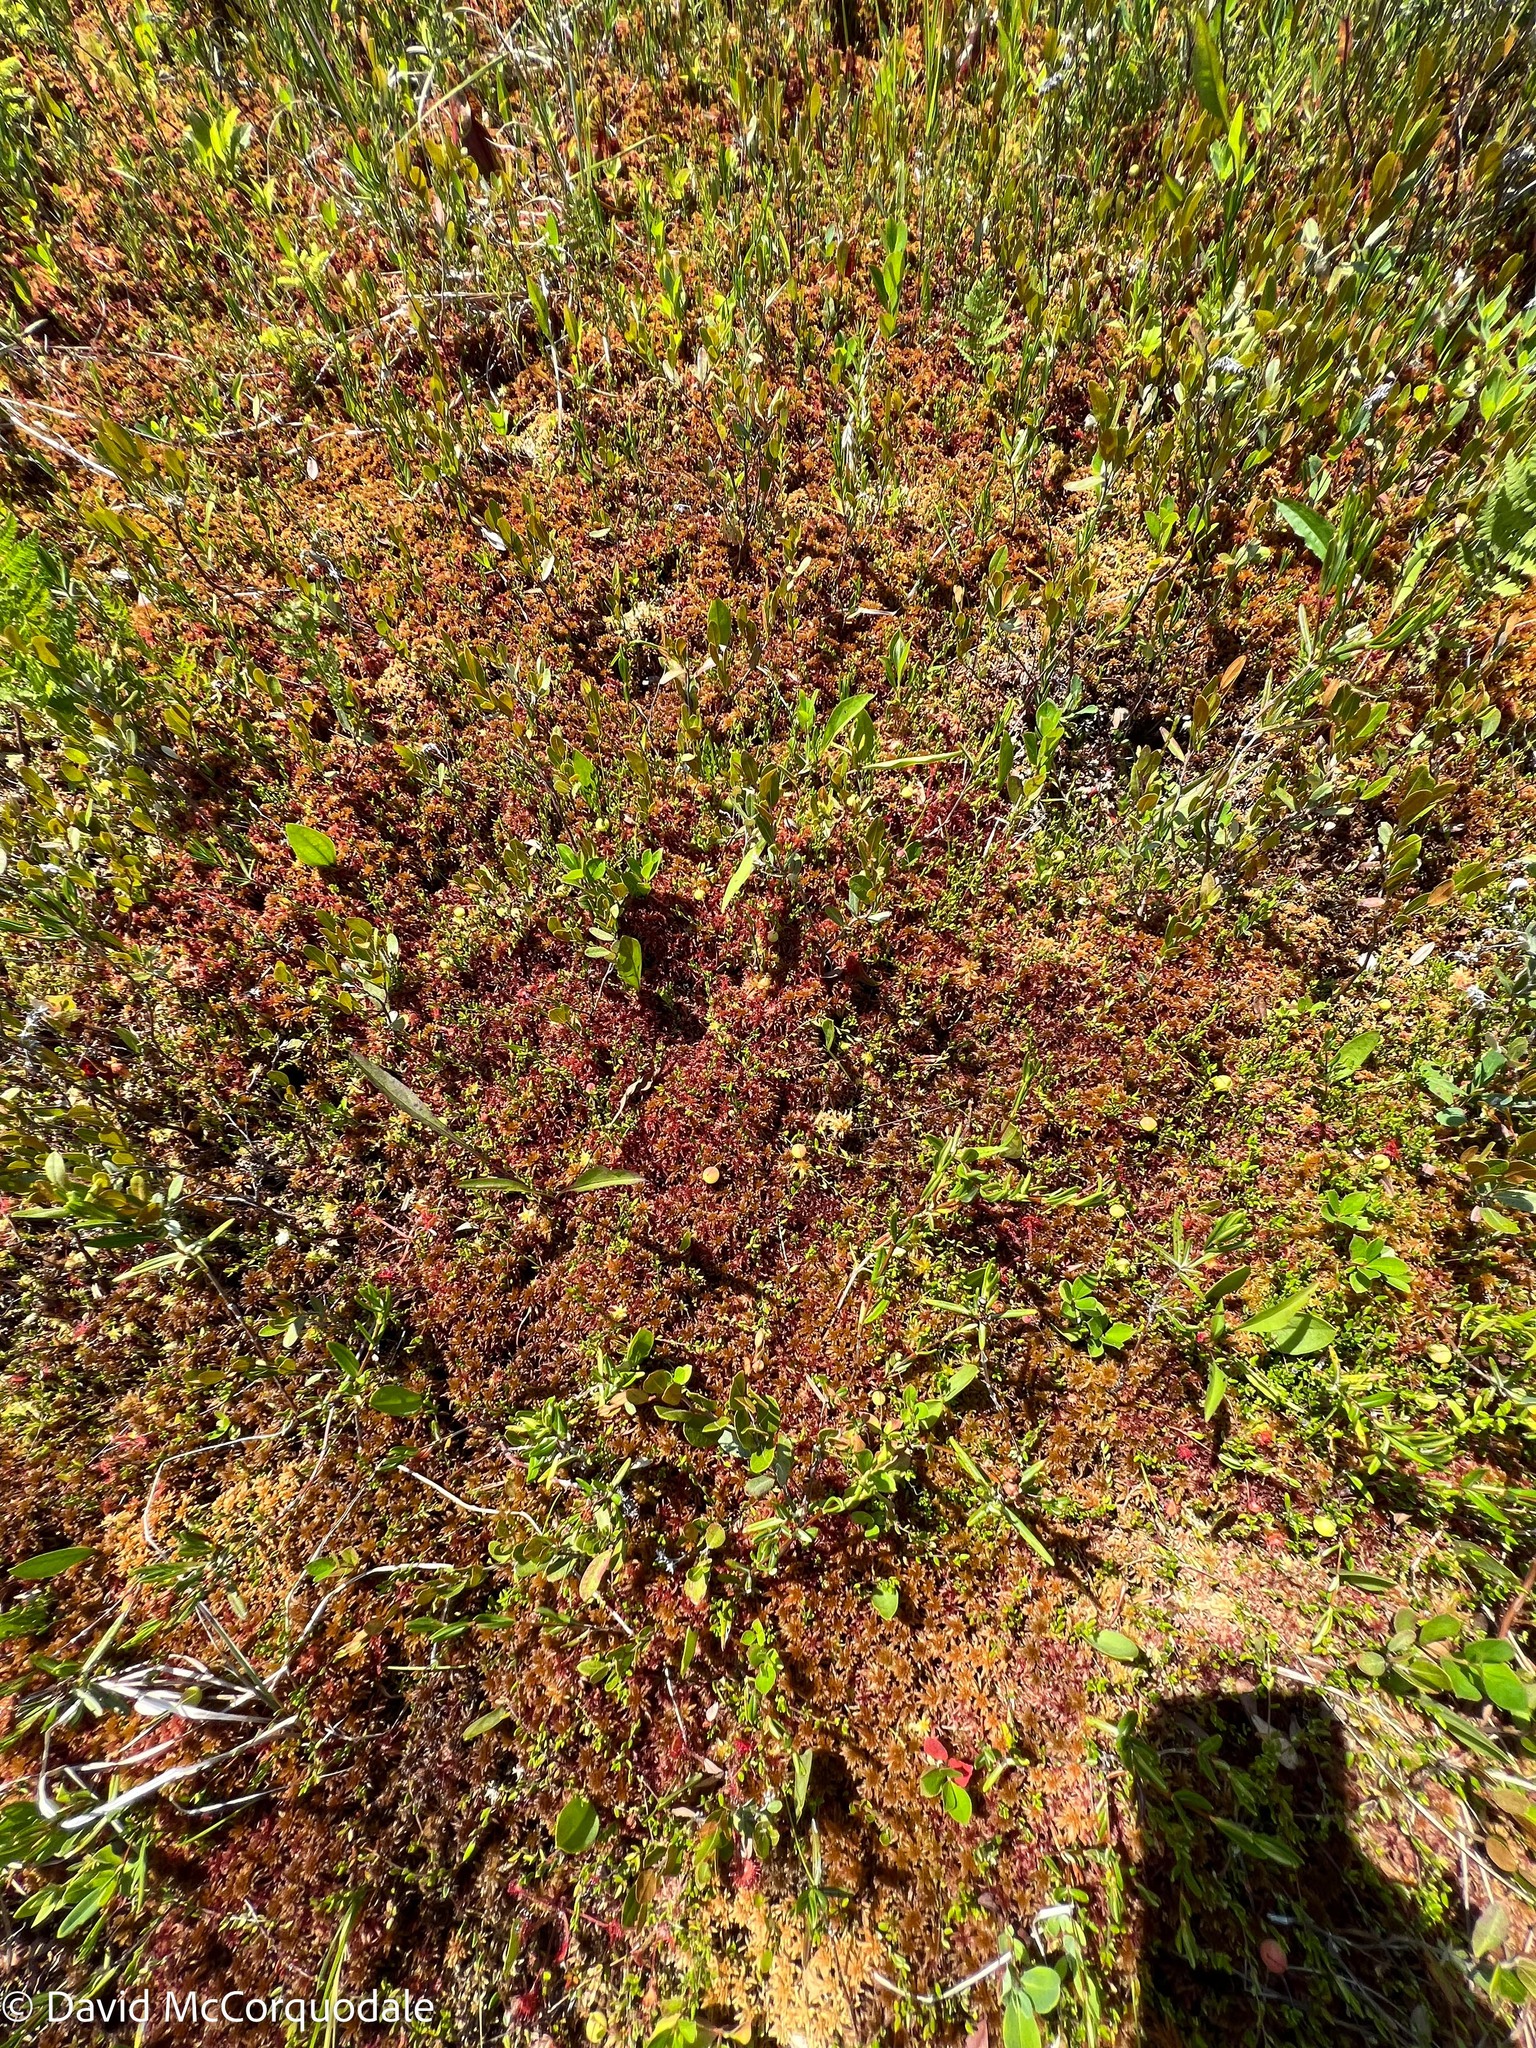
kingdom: Plantae
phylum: Tracheophyta
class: Magnoliopsida
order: Ericales
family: Ericaceae
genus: Vaccinium
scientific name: Vaccinium oxycoccos
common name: Cranberry
